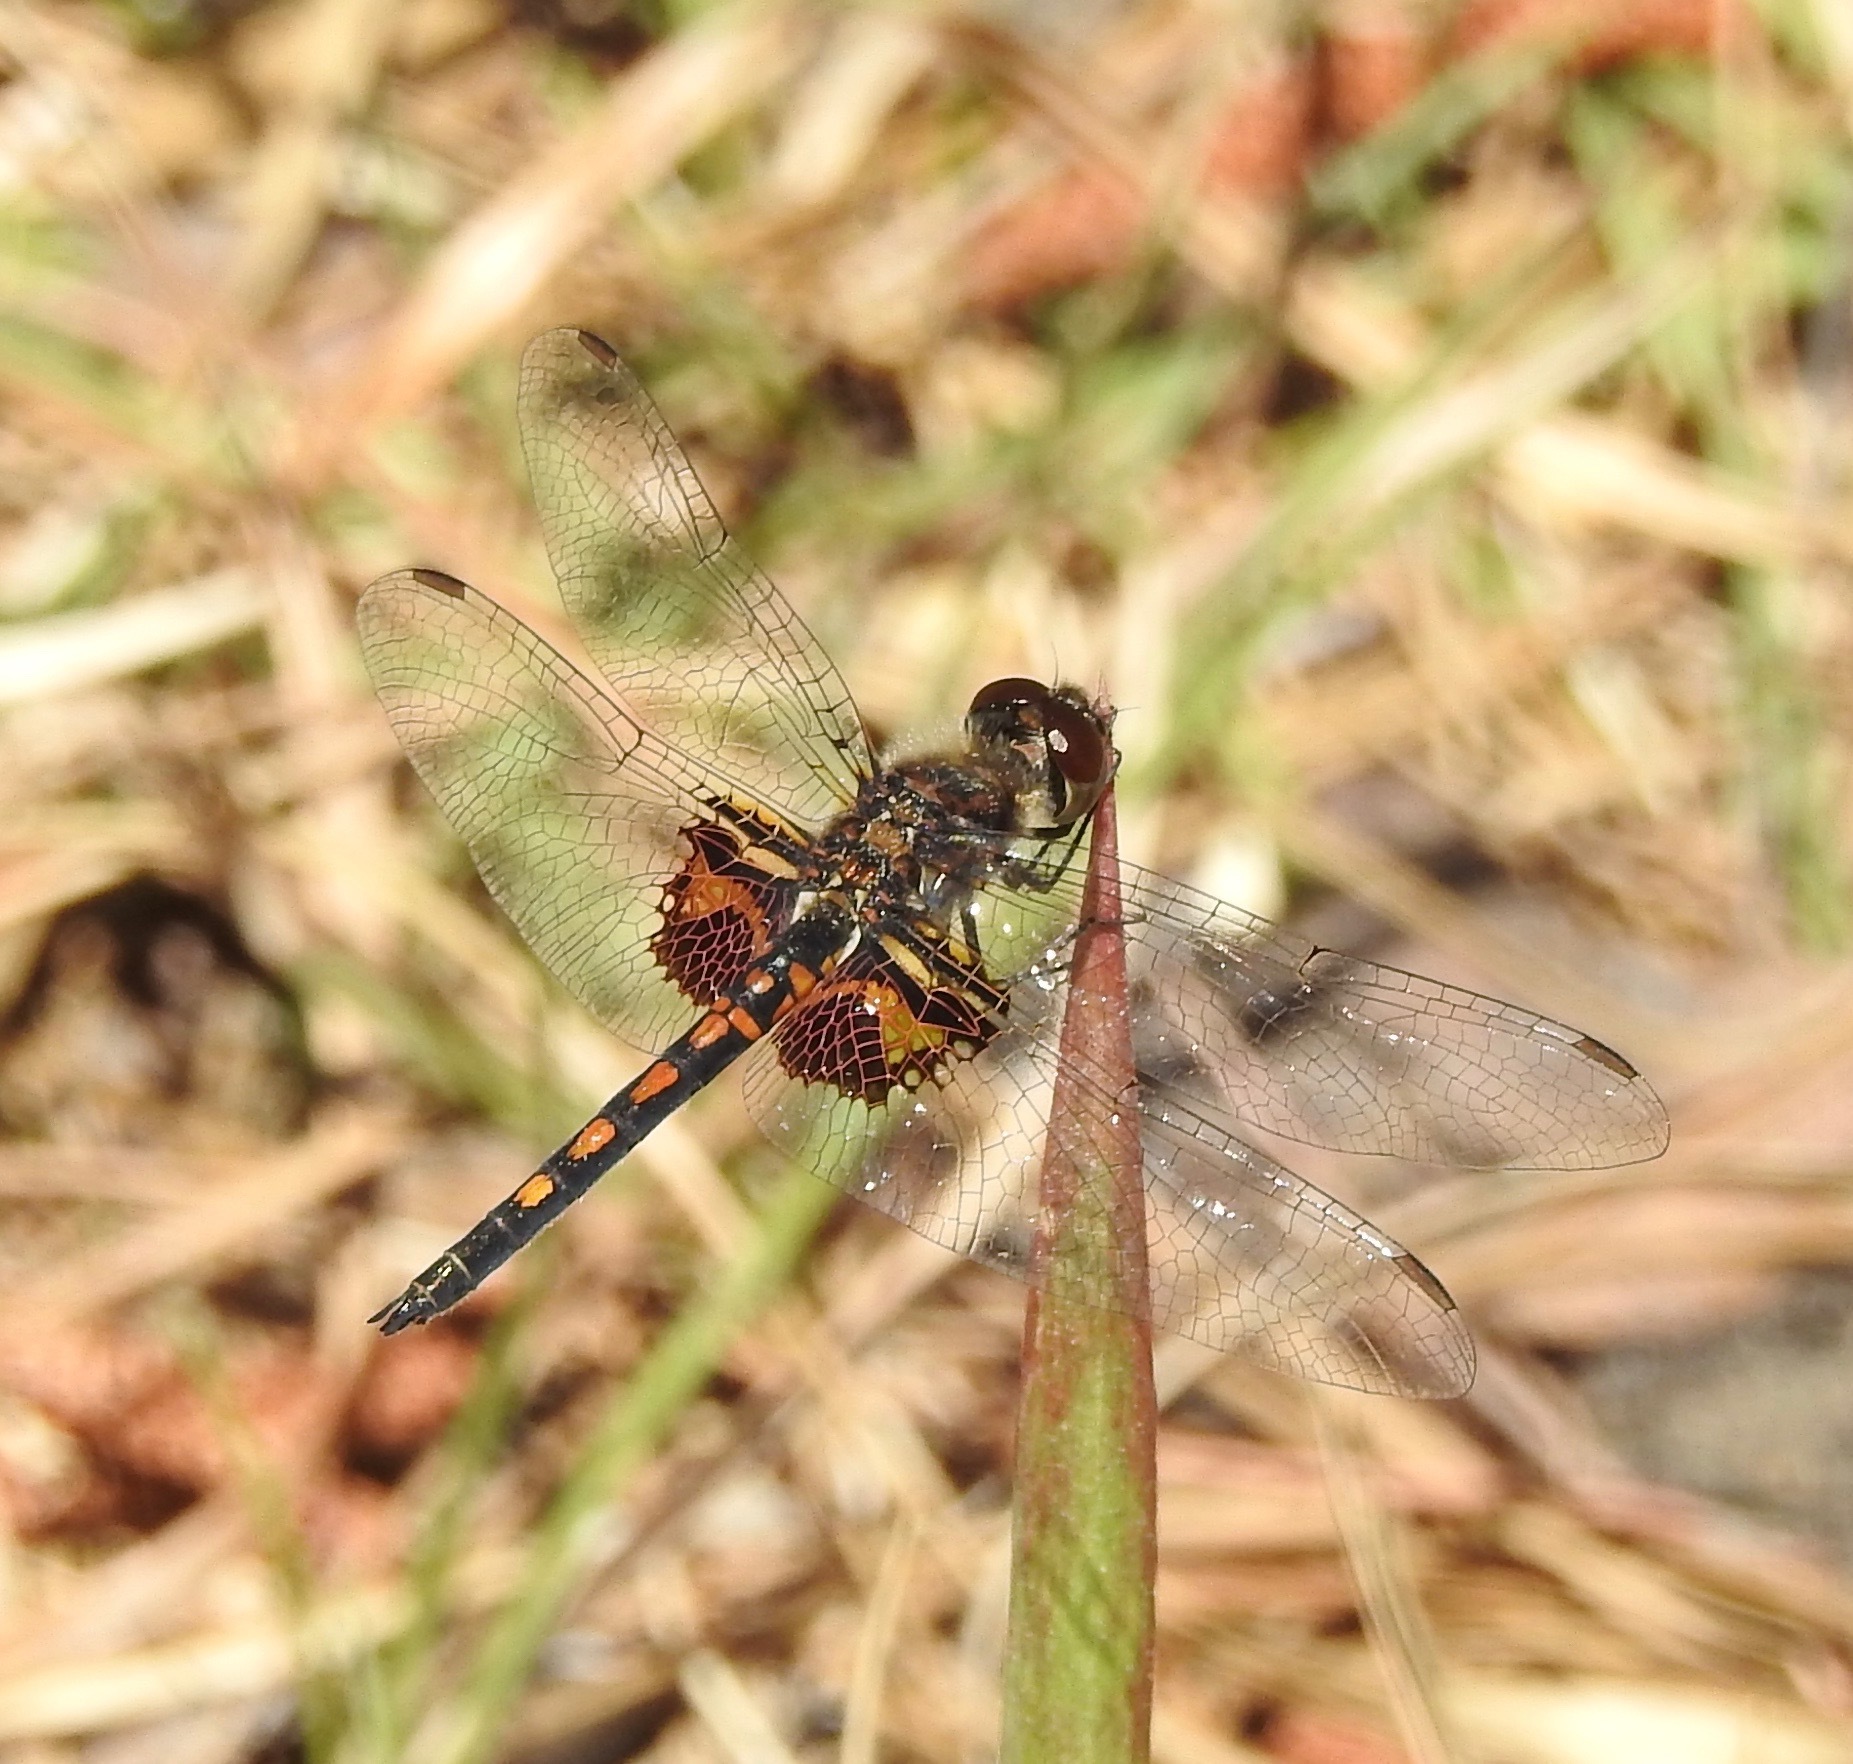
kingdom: Animalia
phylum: Arthropoda
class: Insecta
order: Odonata
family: Libellulidae
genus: Celithemis
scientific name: Celithemis ornata
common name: Ornate pennant
